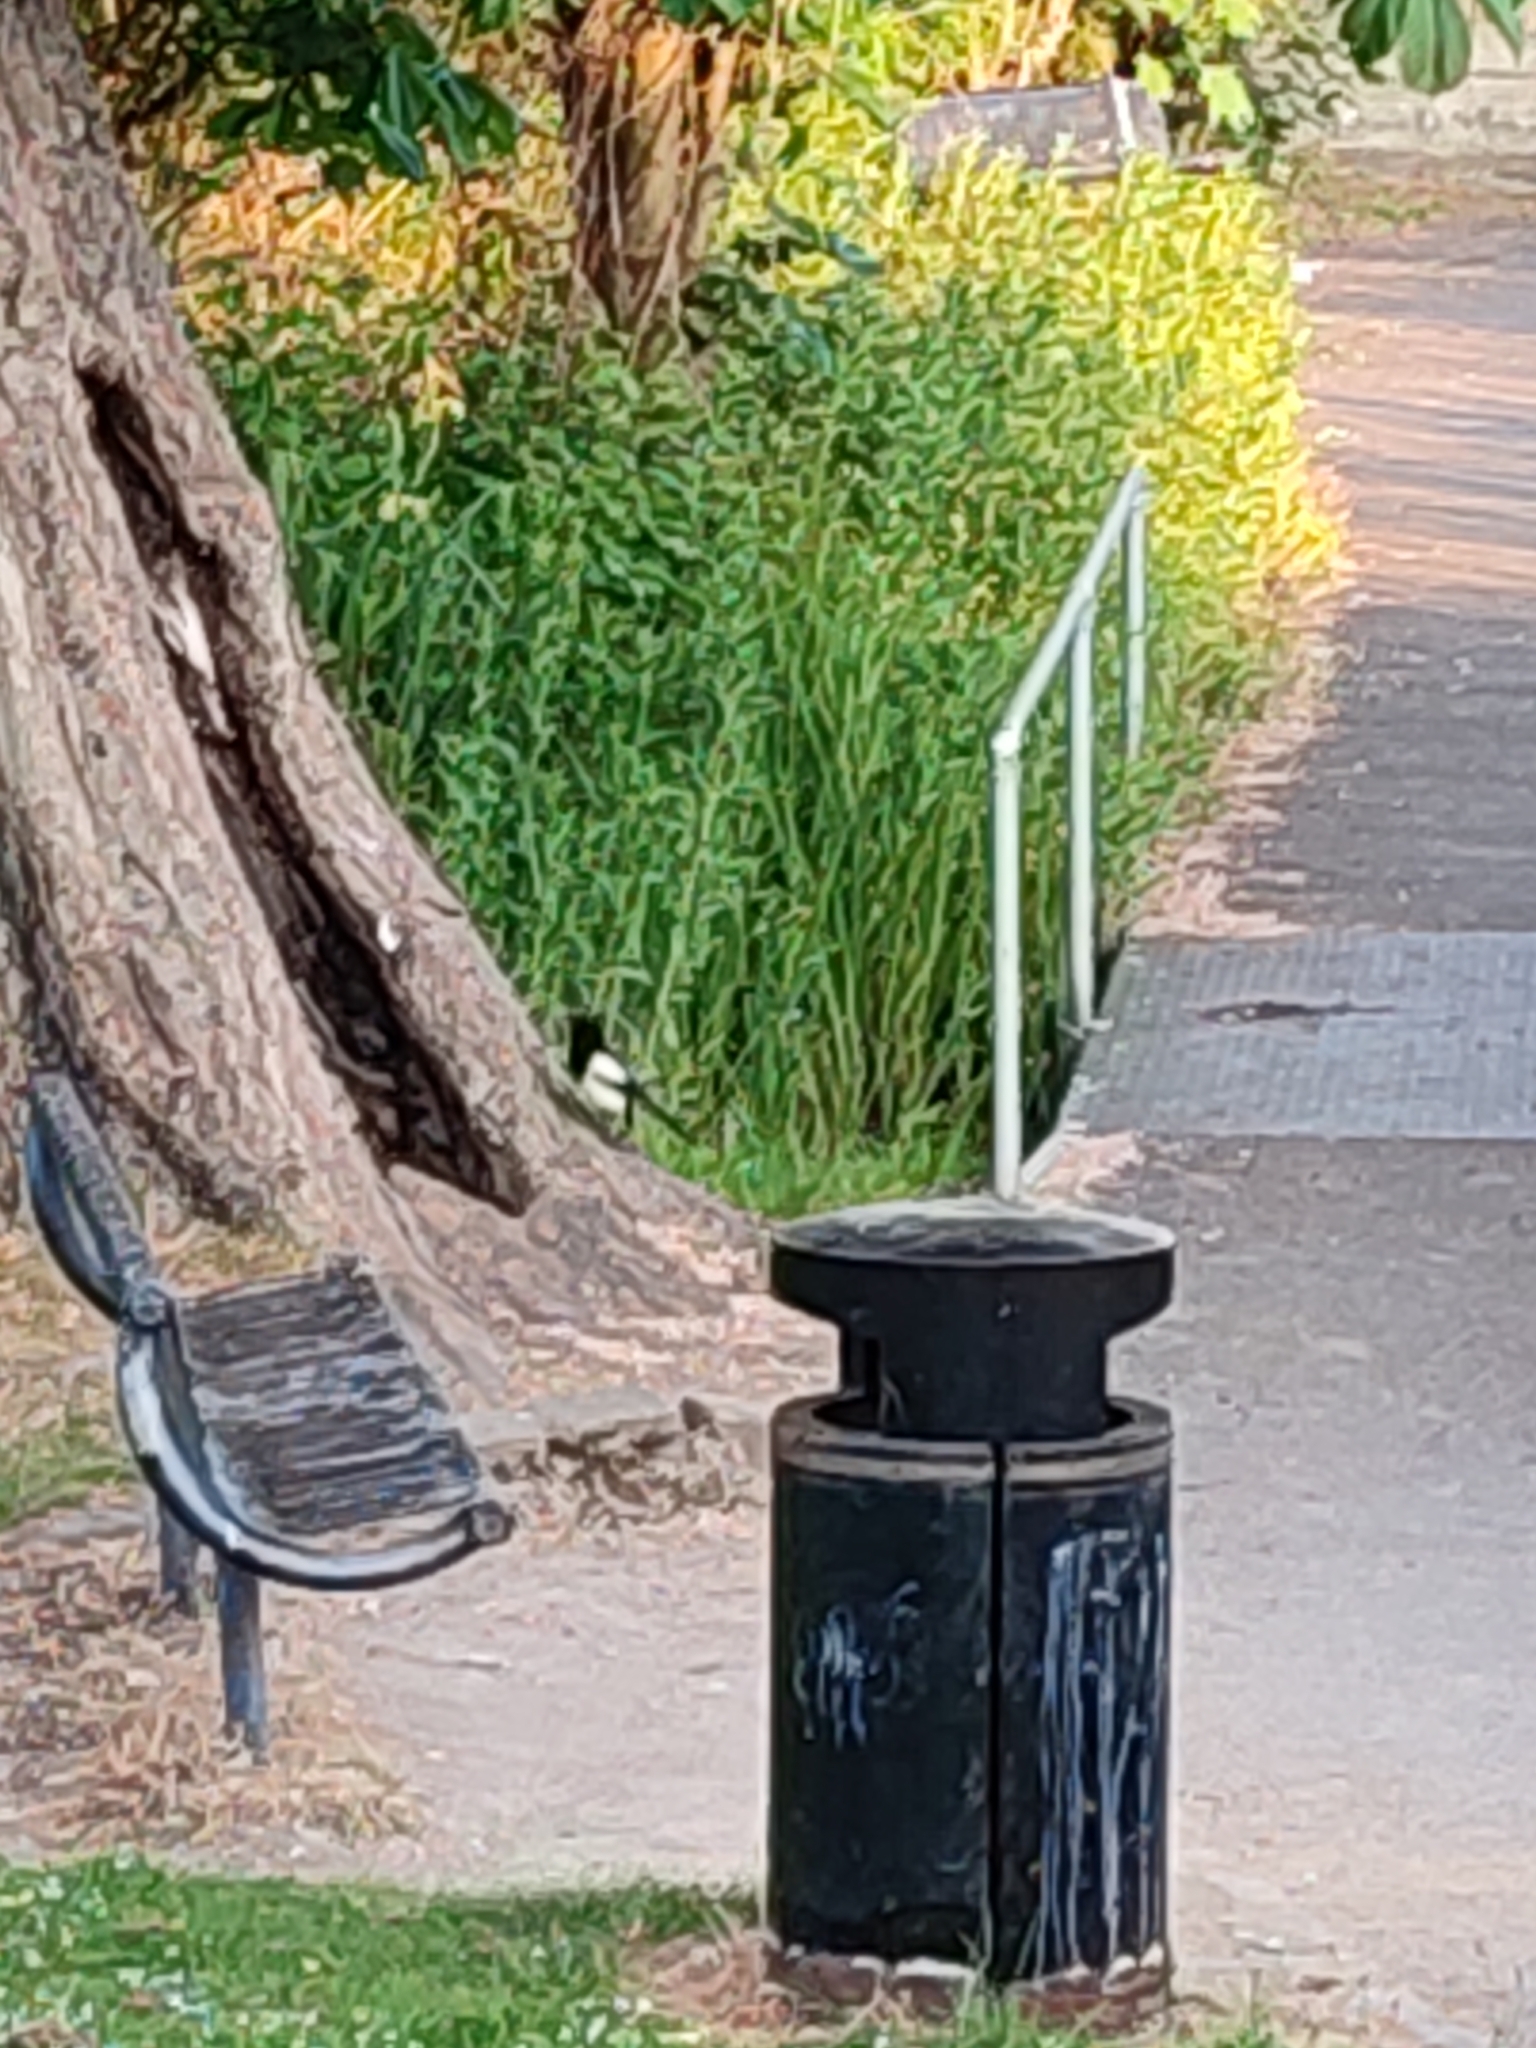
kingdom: Animalia
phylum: Chordata
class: Aves
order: Passeriformes
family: Corvidae
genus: Pica
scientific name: Pica pica
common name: Eurasian magpie
